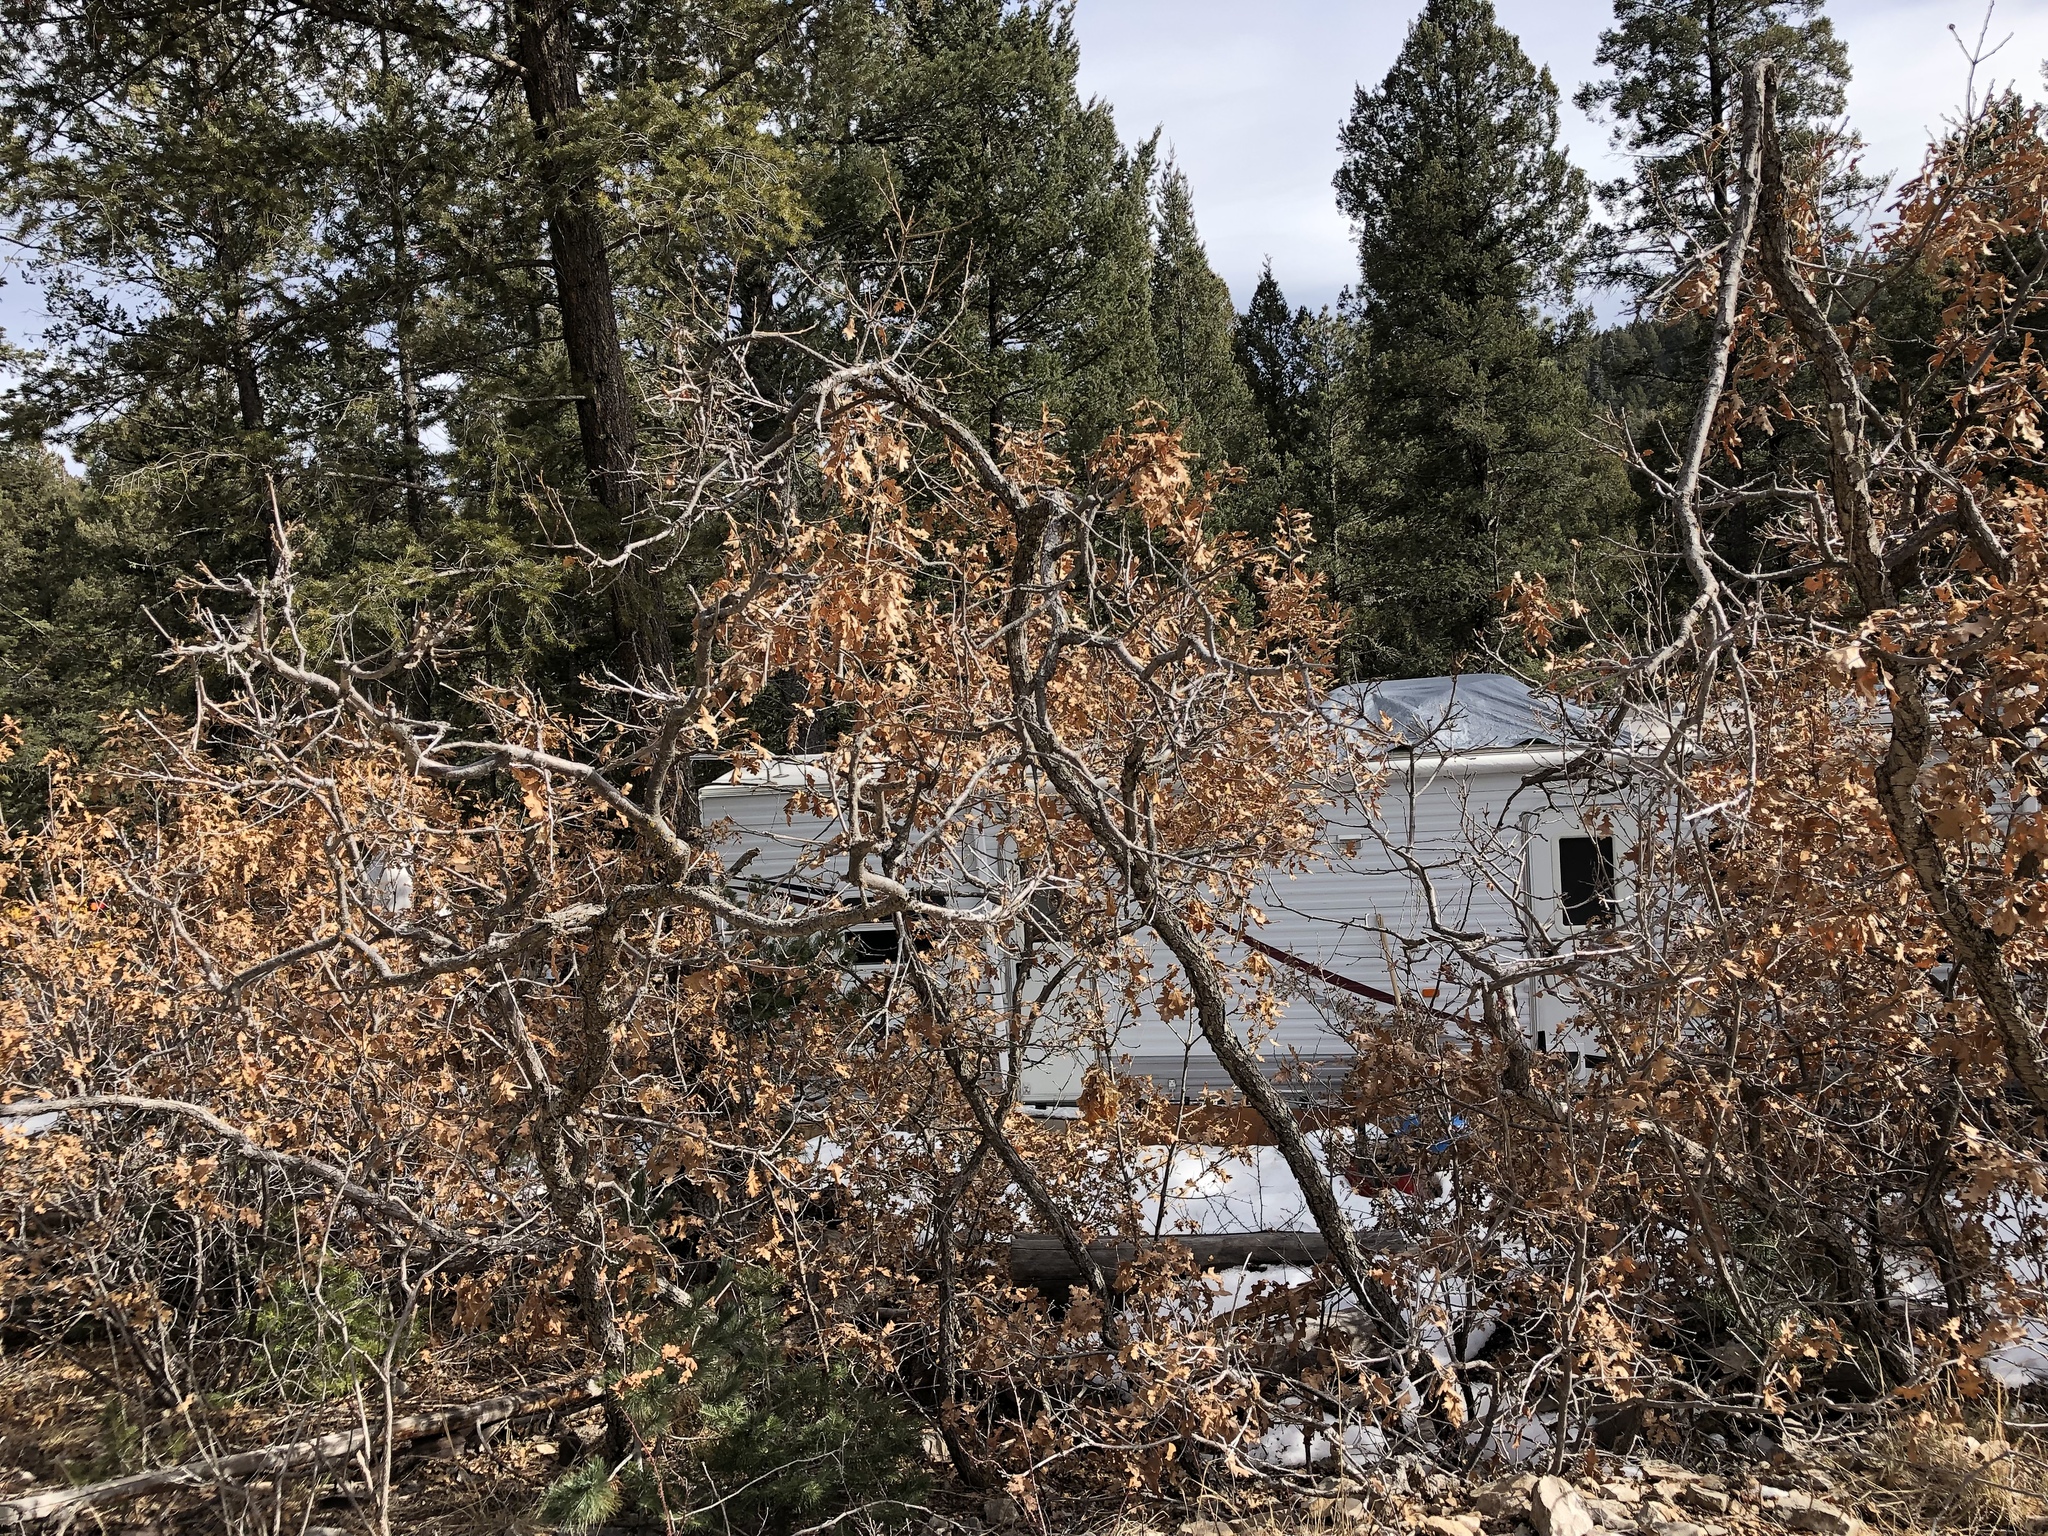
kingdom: Plantae
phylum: Tracheophyta
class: Magnoliopsida
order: Fagales
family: Fagaceae
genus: Quercus
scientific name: Quercus gambelii
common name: Gambel oak
